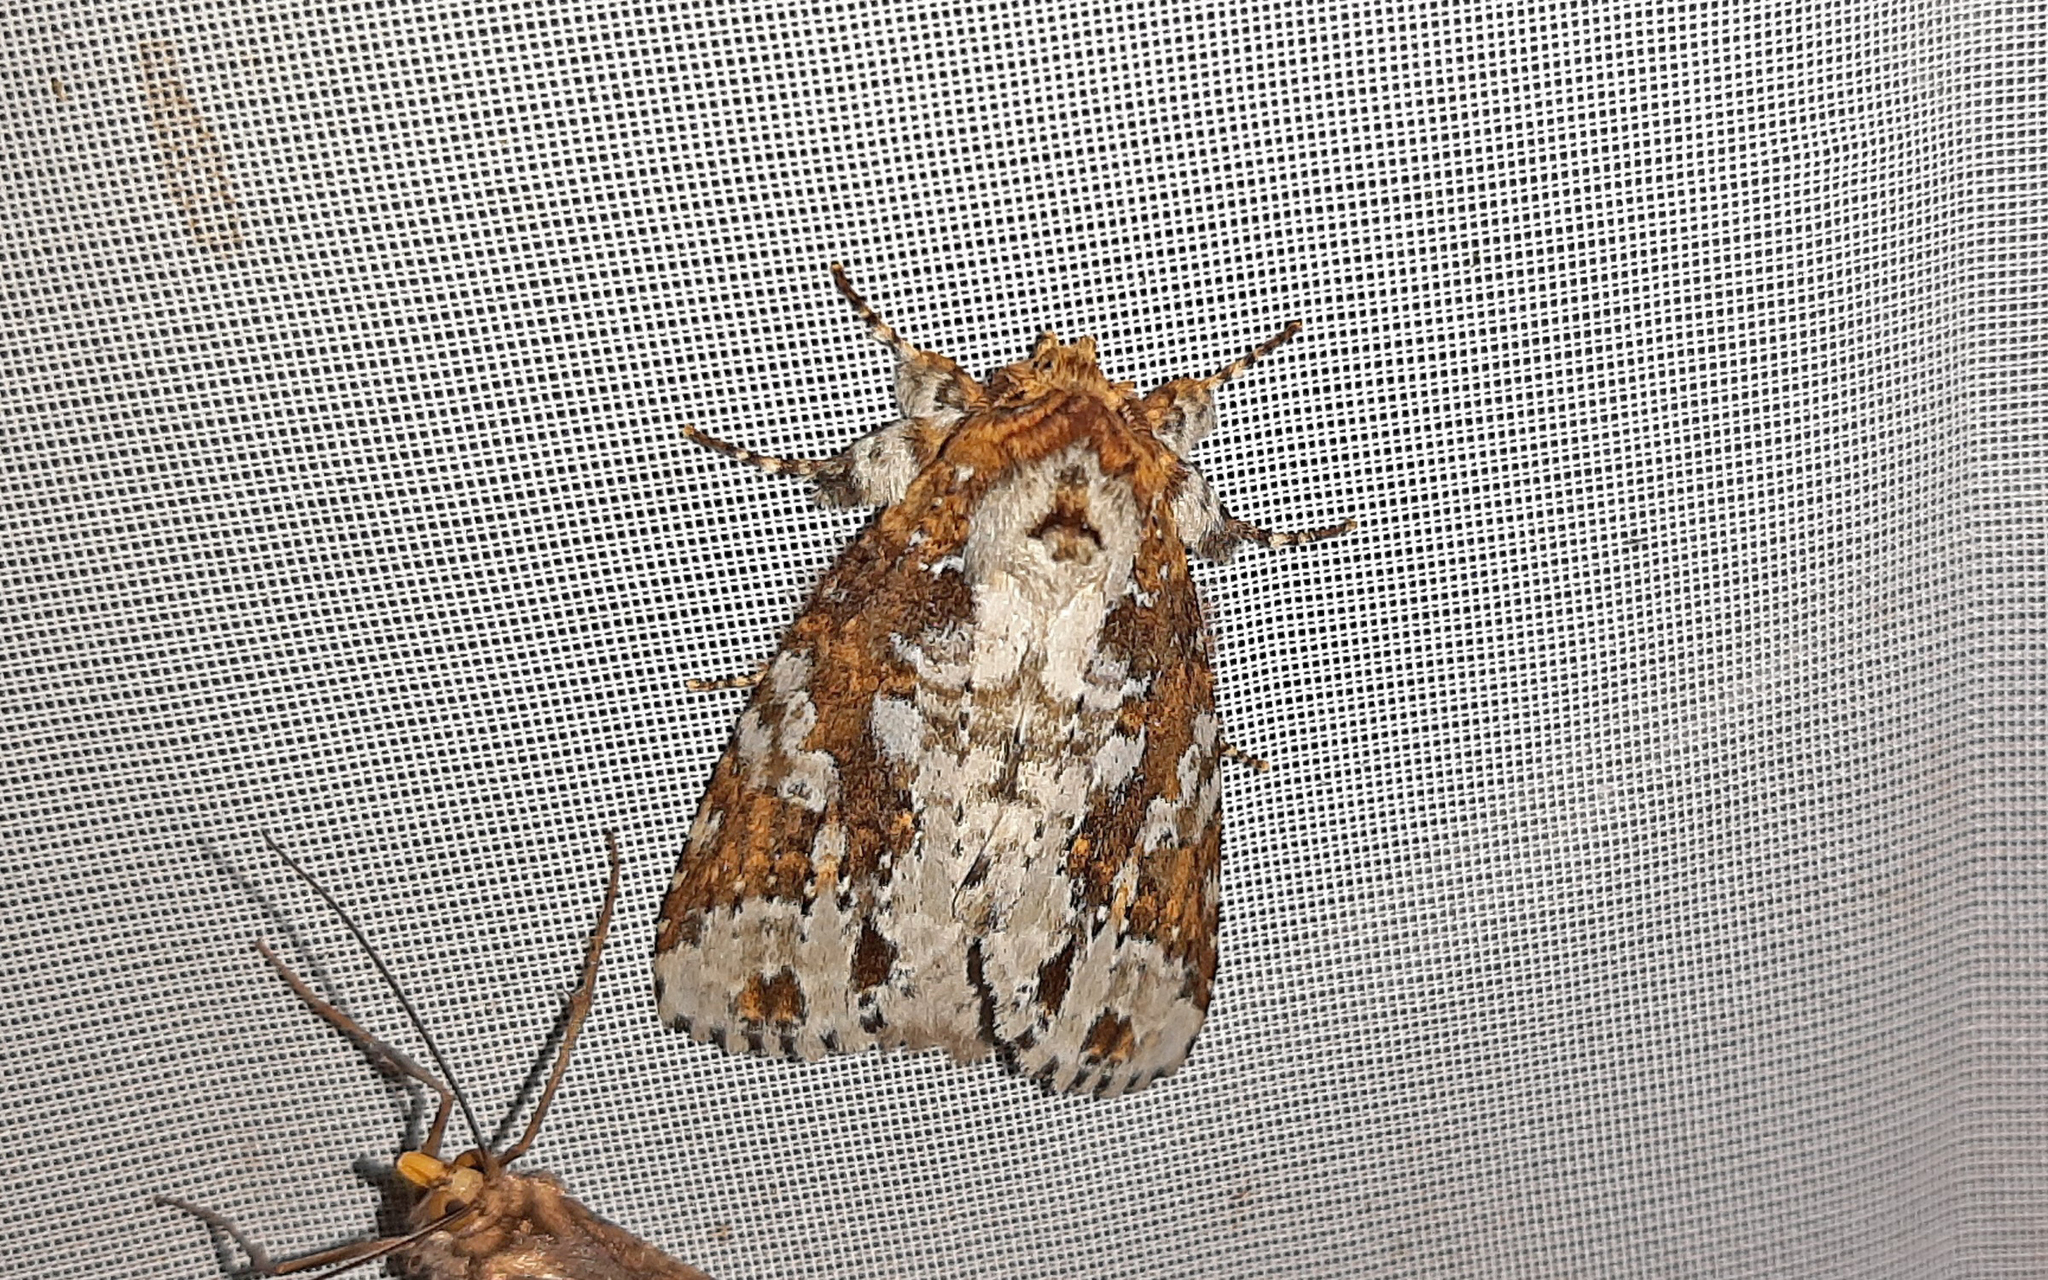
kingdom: Animalia
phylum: Arthropoda
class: Insecta
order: Lepidoptera
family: Notodontidae
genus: Disphragis
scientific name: Disphragis aemula
